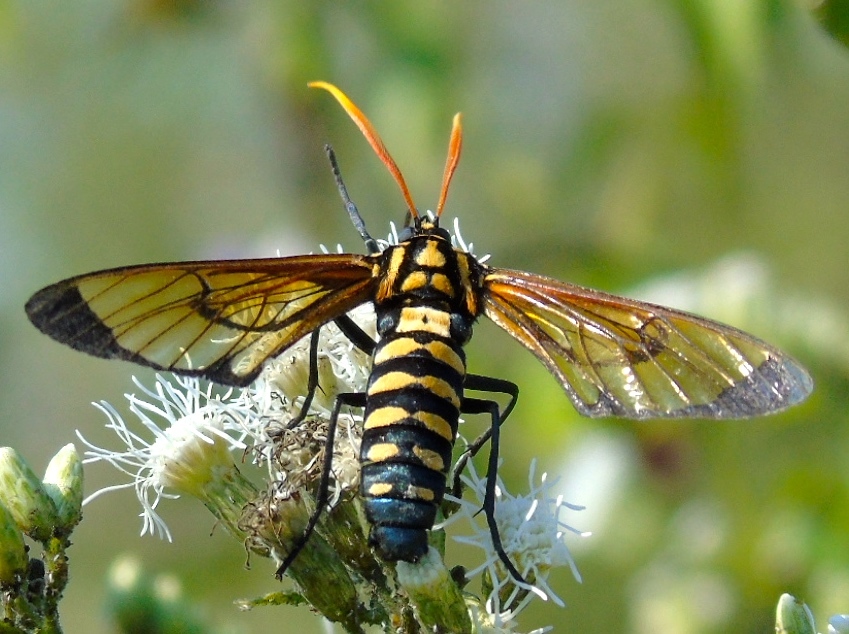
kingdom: Animalia
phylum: Arthropoda
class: Insecta
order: Lepidoptera
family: Erebidae
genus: Isanthrene
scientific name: Isanthrene perboscii
